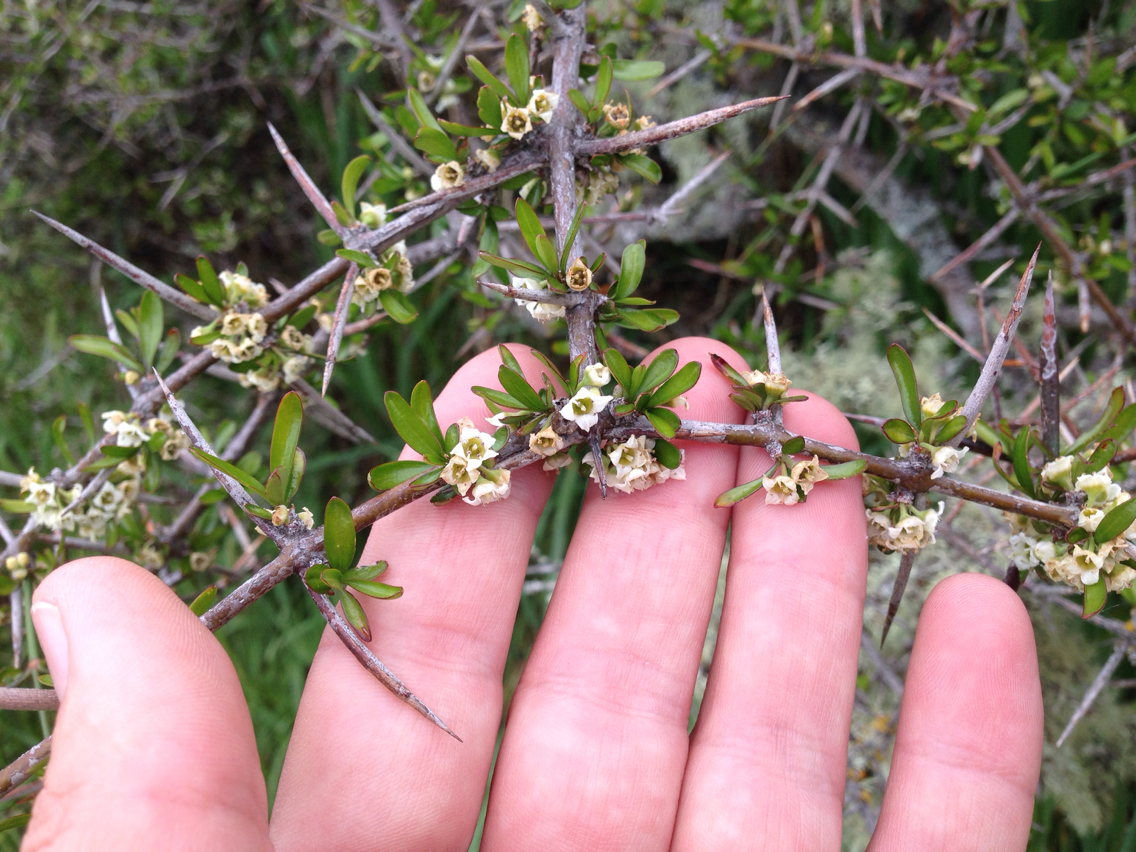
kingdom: Plantae
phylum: Tracheophyta
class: Magnoliopsida
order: Rosales
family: Rhamnaceae
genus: Discaria
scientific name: Discaria toumatou
